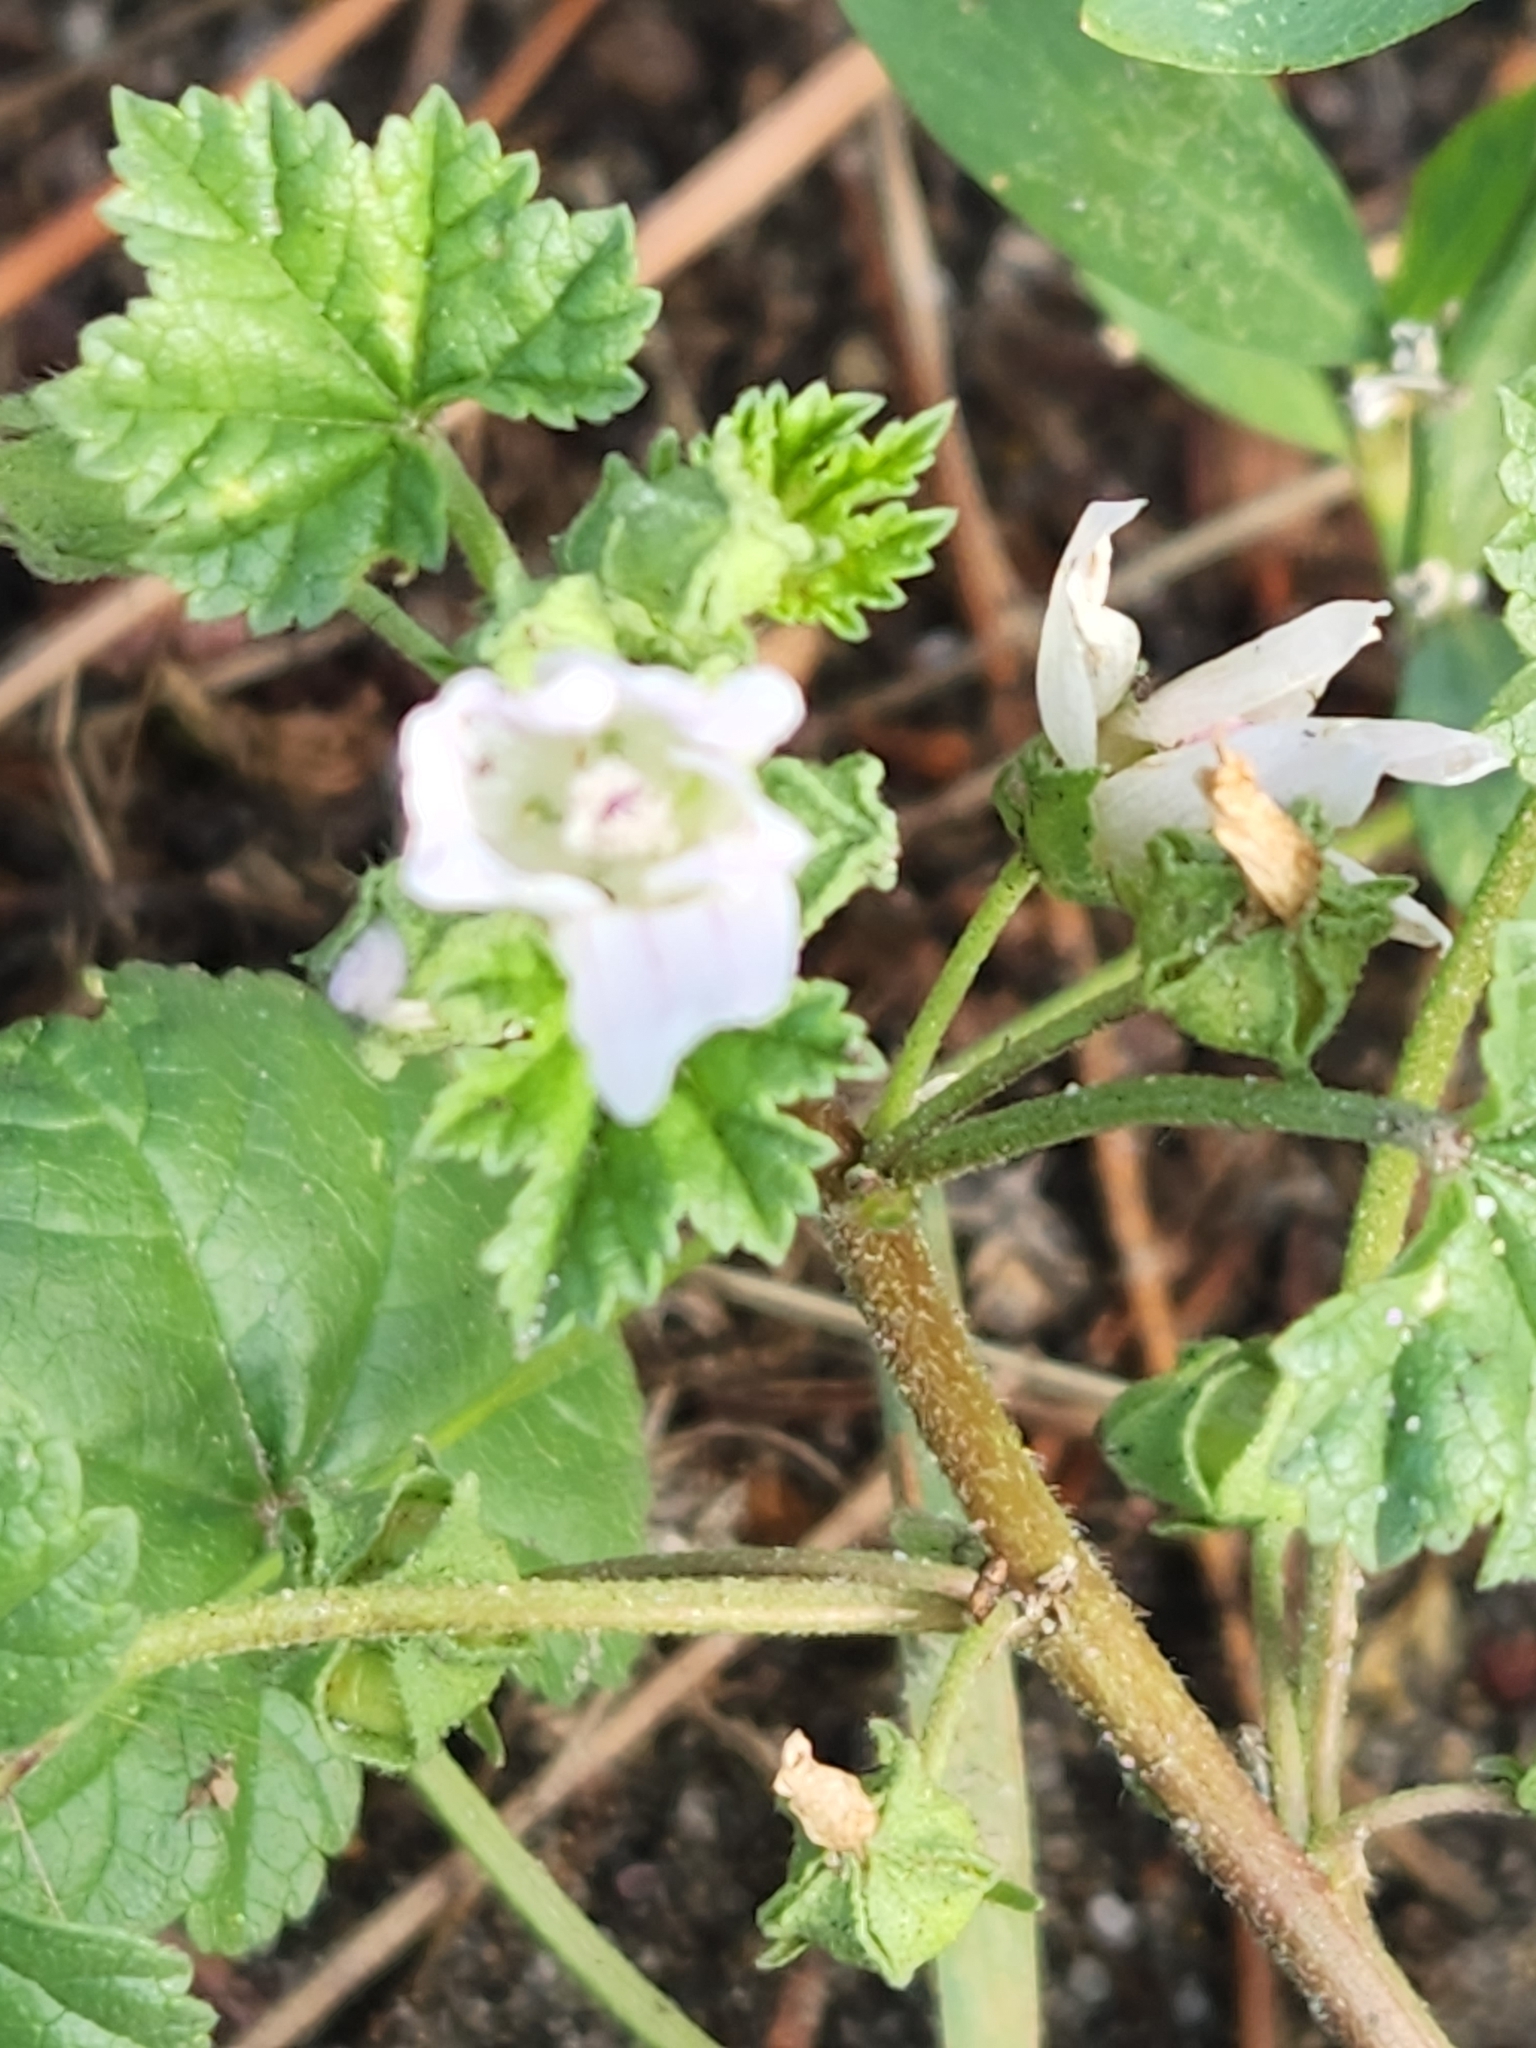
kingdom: Plantae
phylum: Tracheophyta
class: Magnoliopsida
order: Malvales
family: Malvaceae
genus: Malva
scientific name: Malva neglecta
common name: Common mallow
